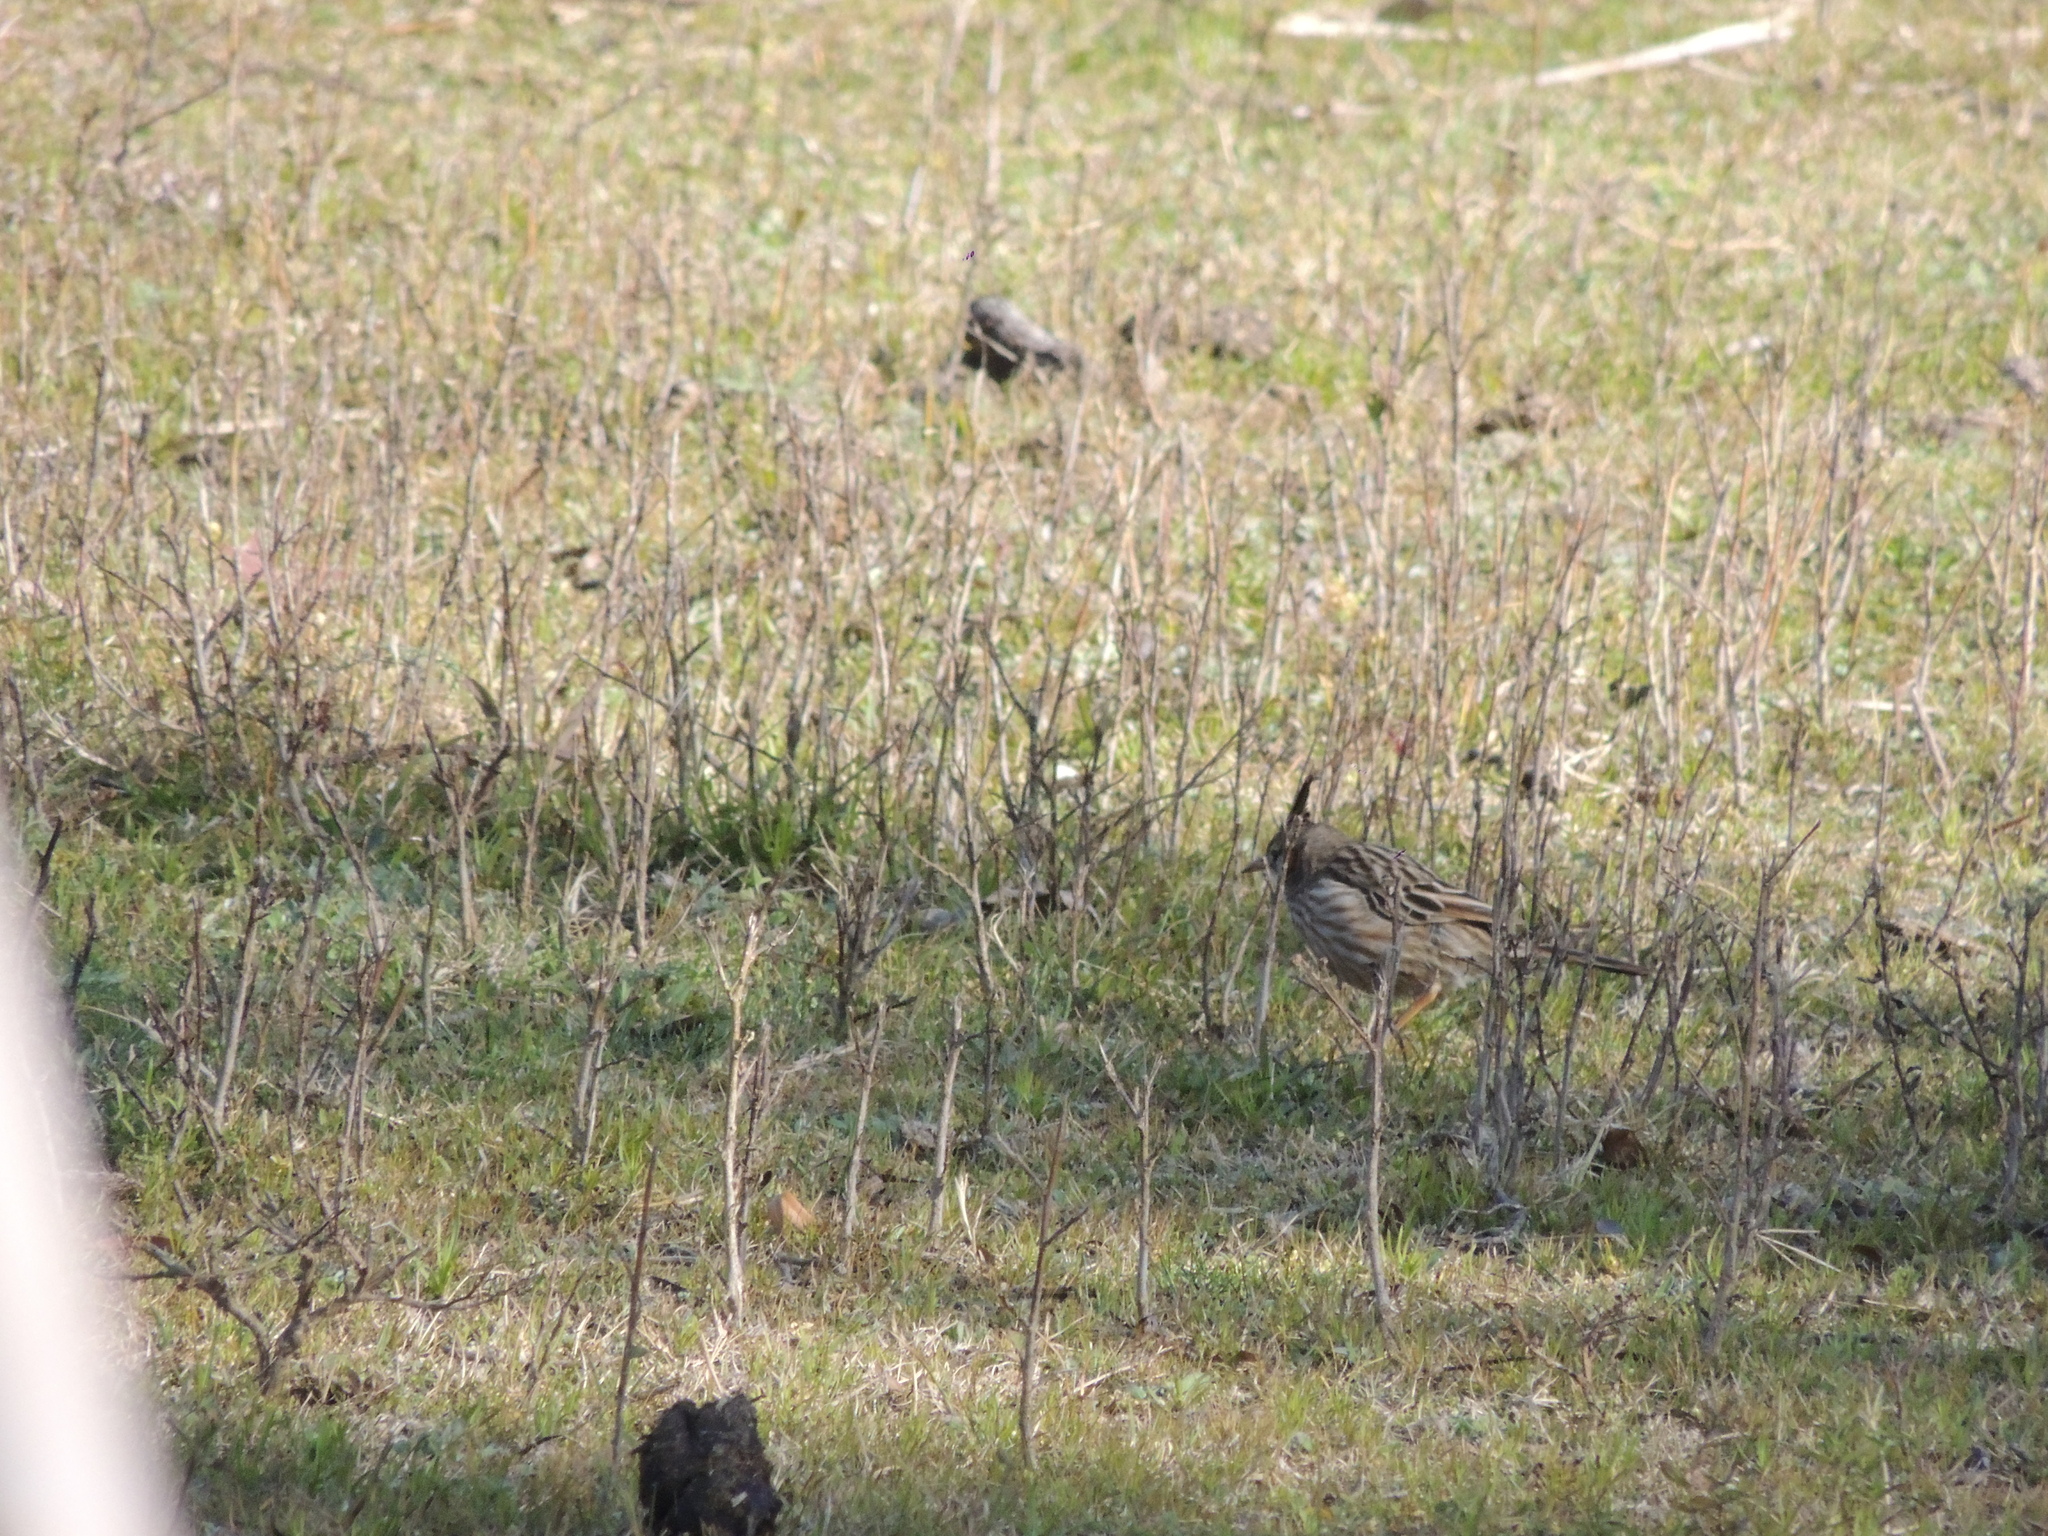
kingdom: Animalia
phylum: Chordata
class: Aves
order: Passeriformes
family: Furnariidae
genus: Coryphistera
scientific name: Coryphistera alaudina
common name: Lark-like brushrunner
